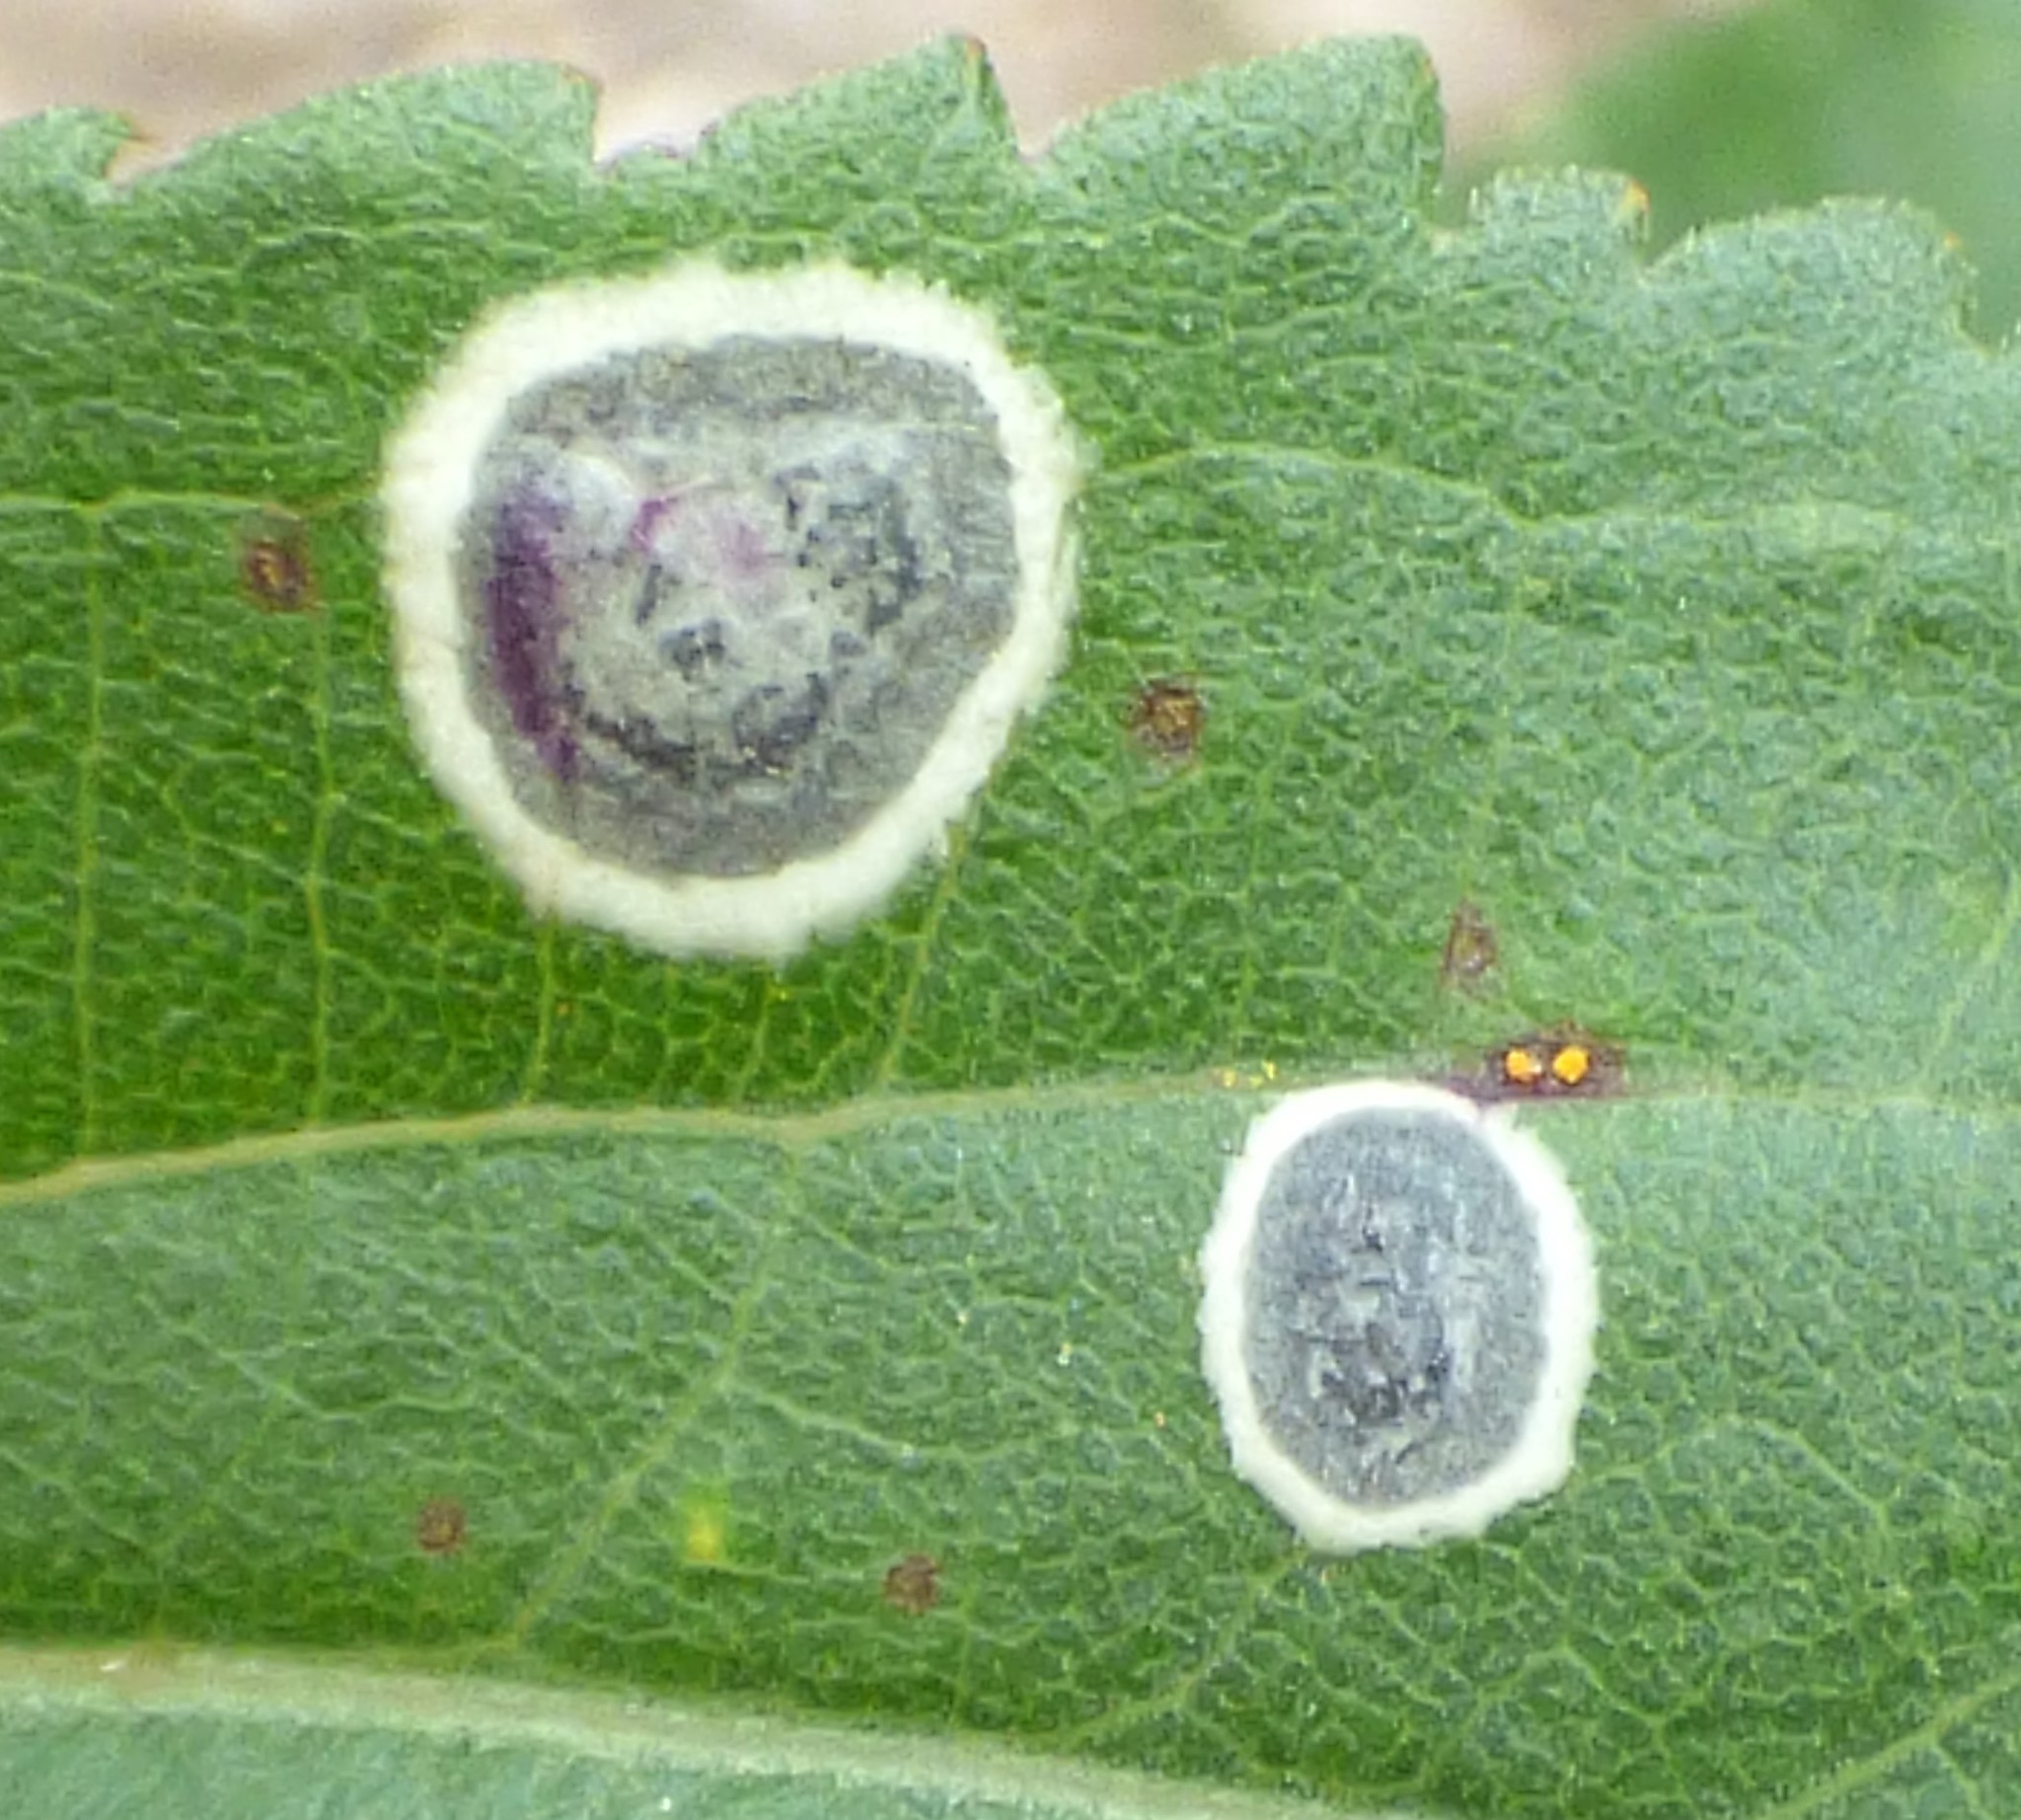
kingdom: Animalia
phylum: Arthropoda
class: Insecta
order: Diptera
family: Cecidomyiidae
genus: Asteromyia
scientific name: Asteromyia carbonifera
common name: Carbonifera goldenrod gall midge
